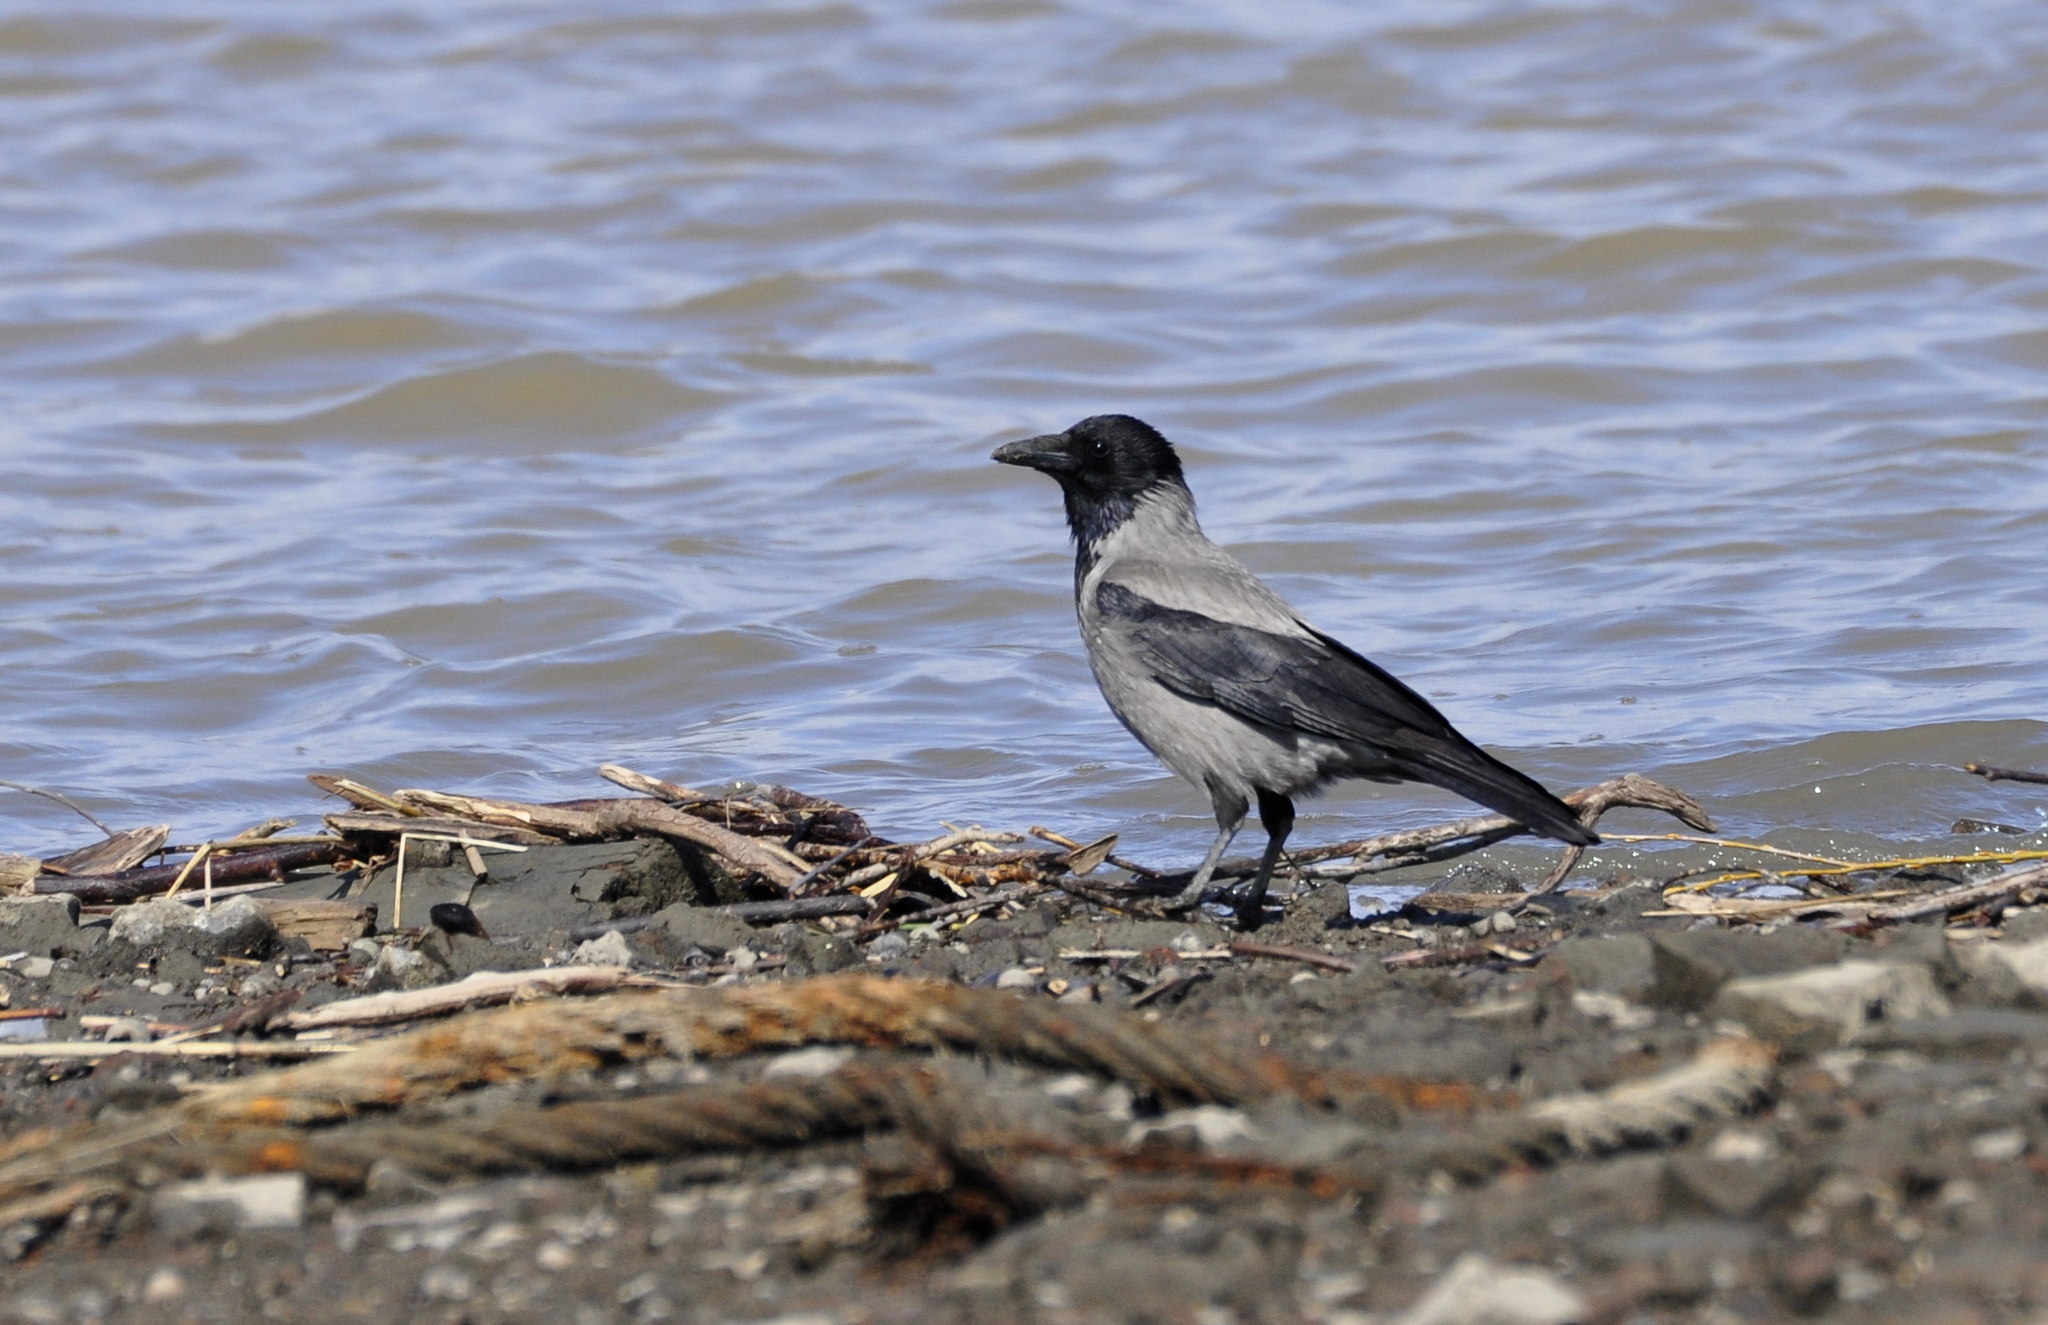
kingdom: Animalia
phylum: Chordata
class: Aves
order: Passeriformes
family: Corvidae
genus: Corvus
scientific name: Corvus cornix
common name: Hooded crow
